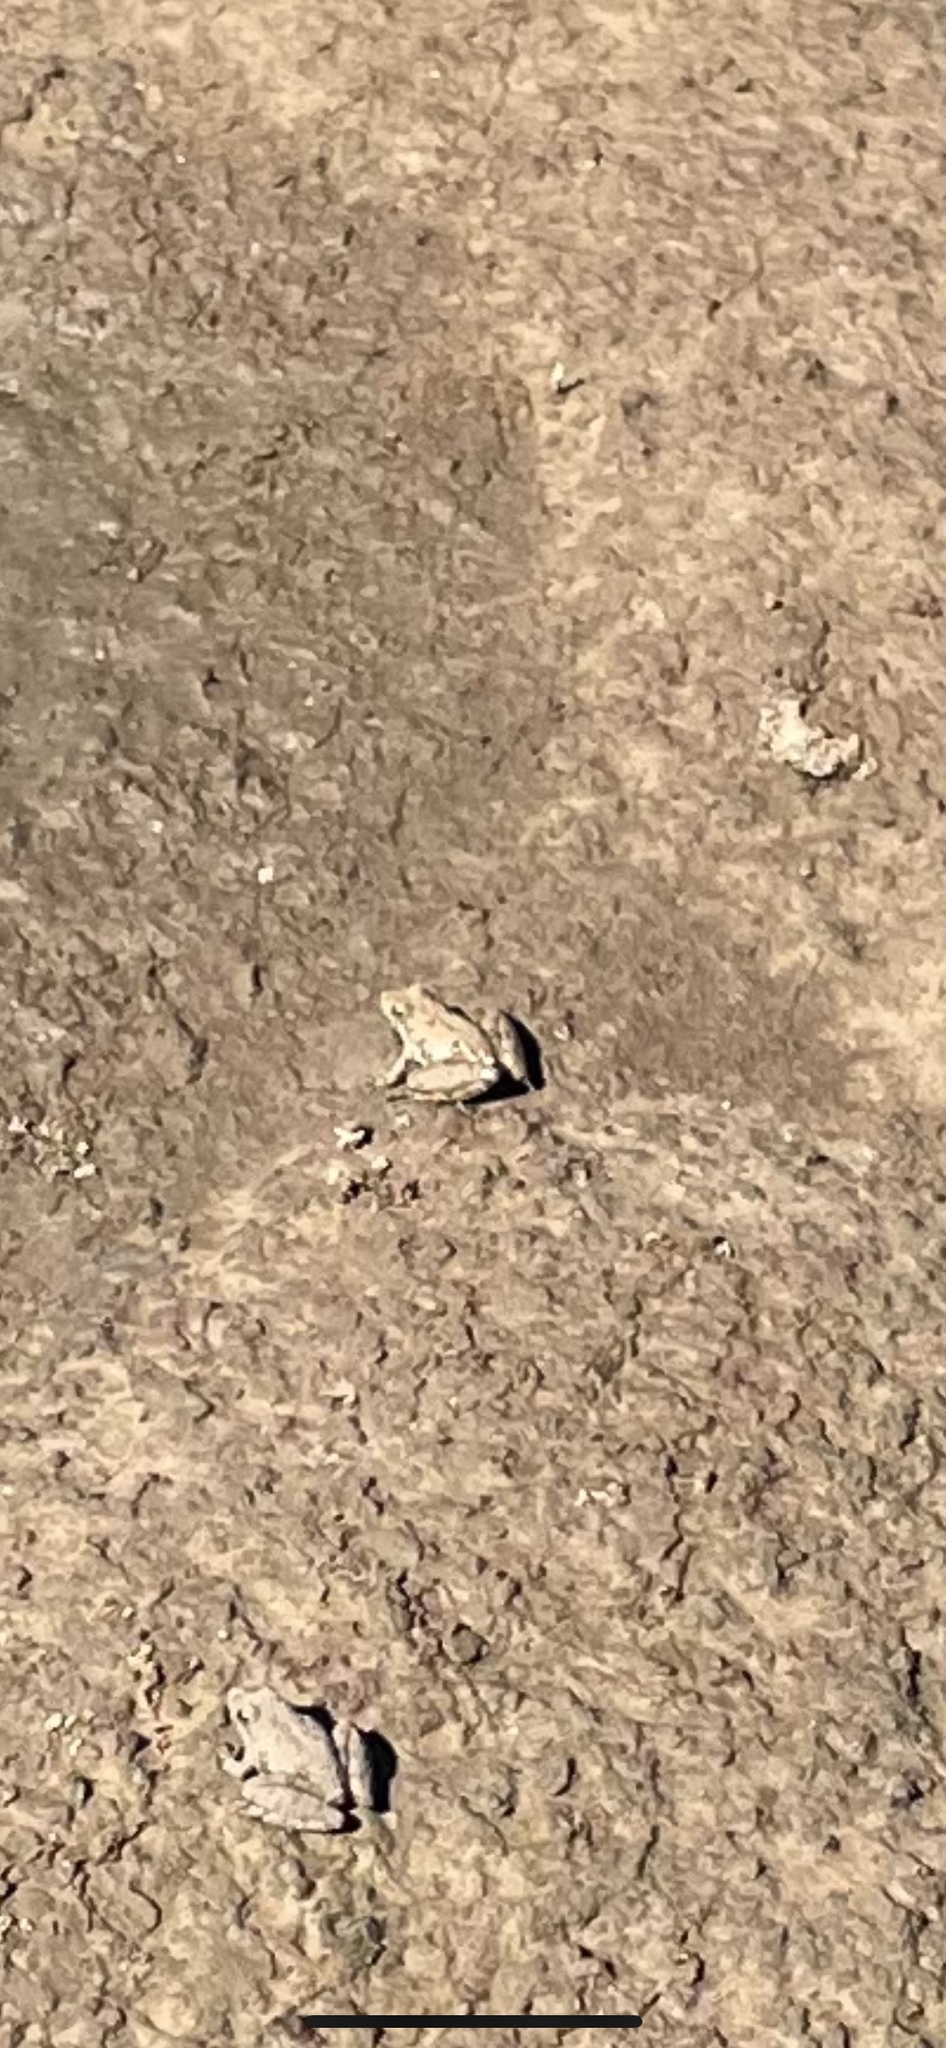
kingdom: Animalia
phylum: Chordata
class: Amphibia
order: Anura
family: Hylidae
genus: Acris
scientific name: Acris blanchardi
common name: Blanchard's cricket frog
